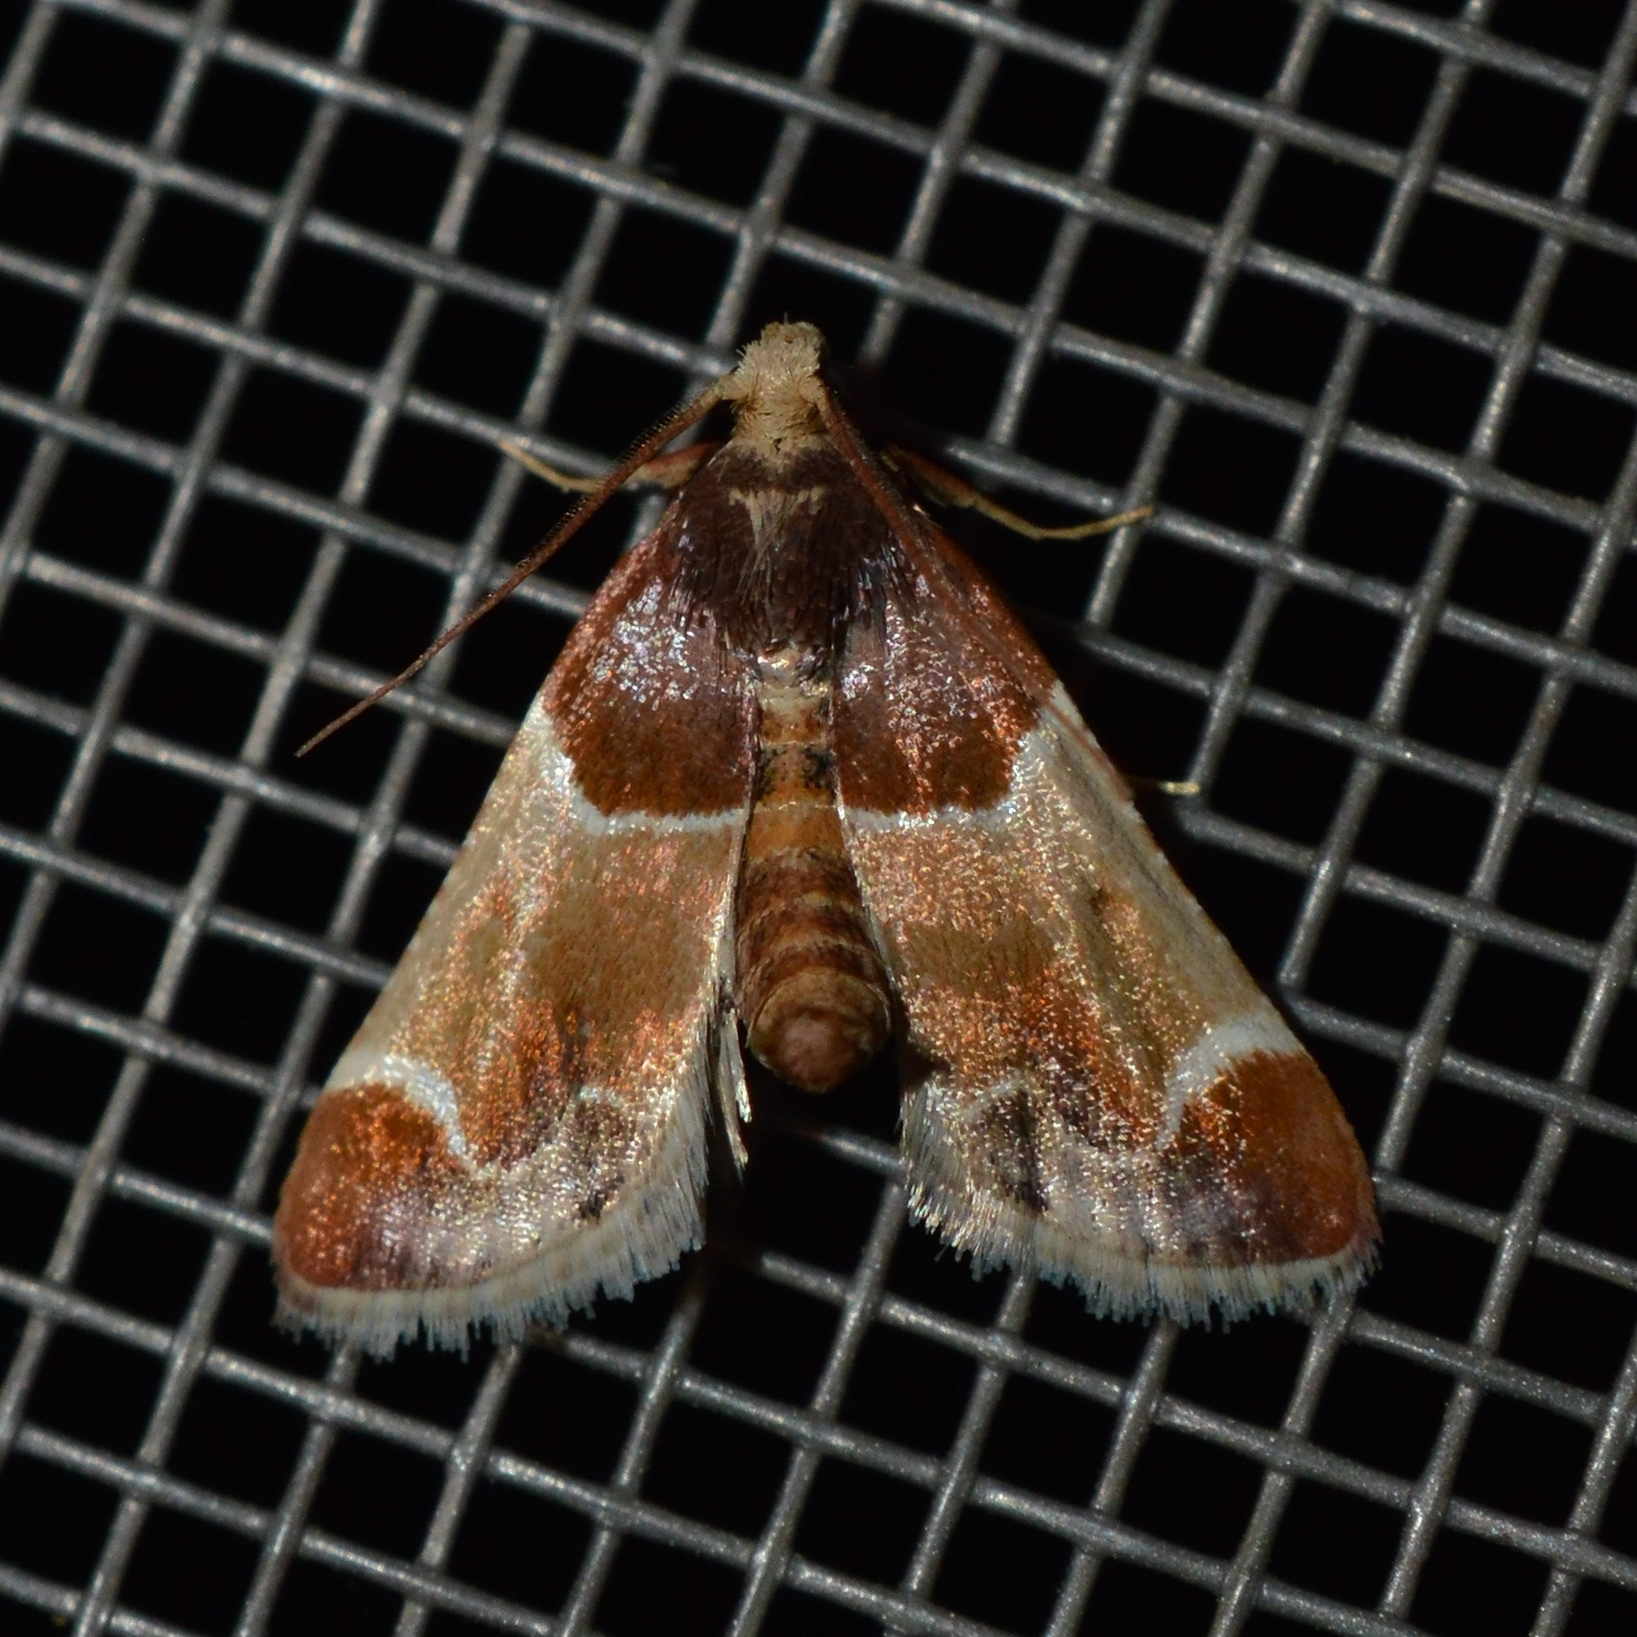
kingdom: Animalia
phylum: Arthropoda
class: Insecta
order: Lepidoptera
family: Pyralidae
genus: Pyralis
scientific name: Pyralis farinalis
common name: Meal moth
